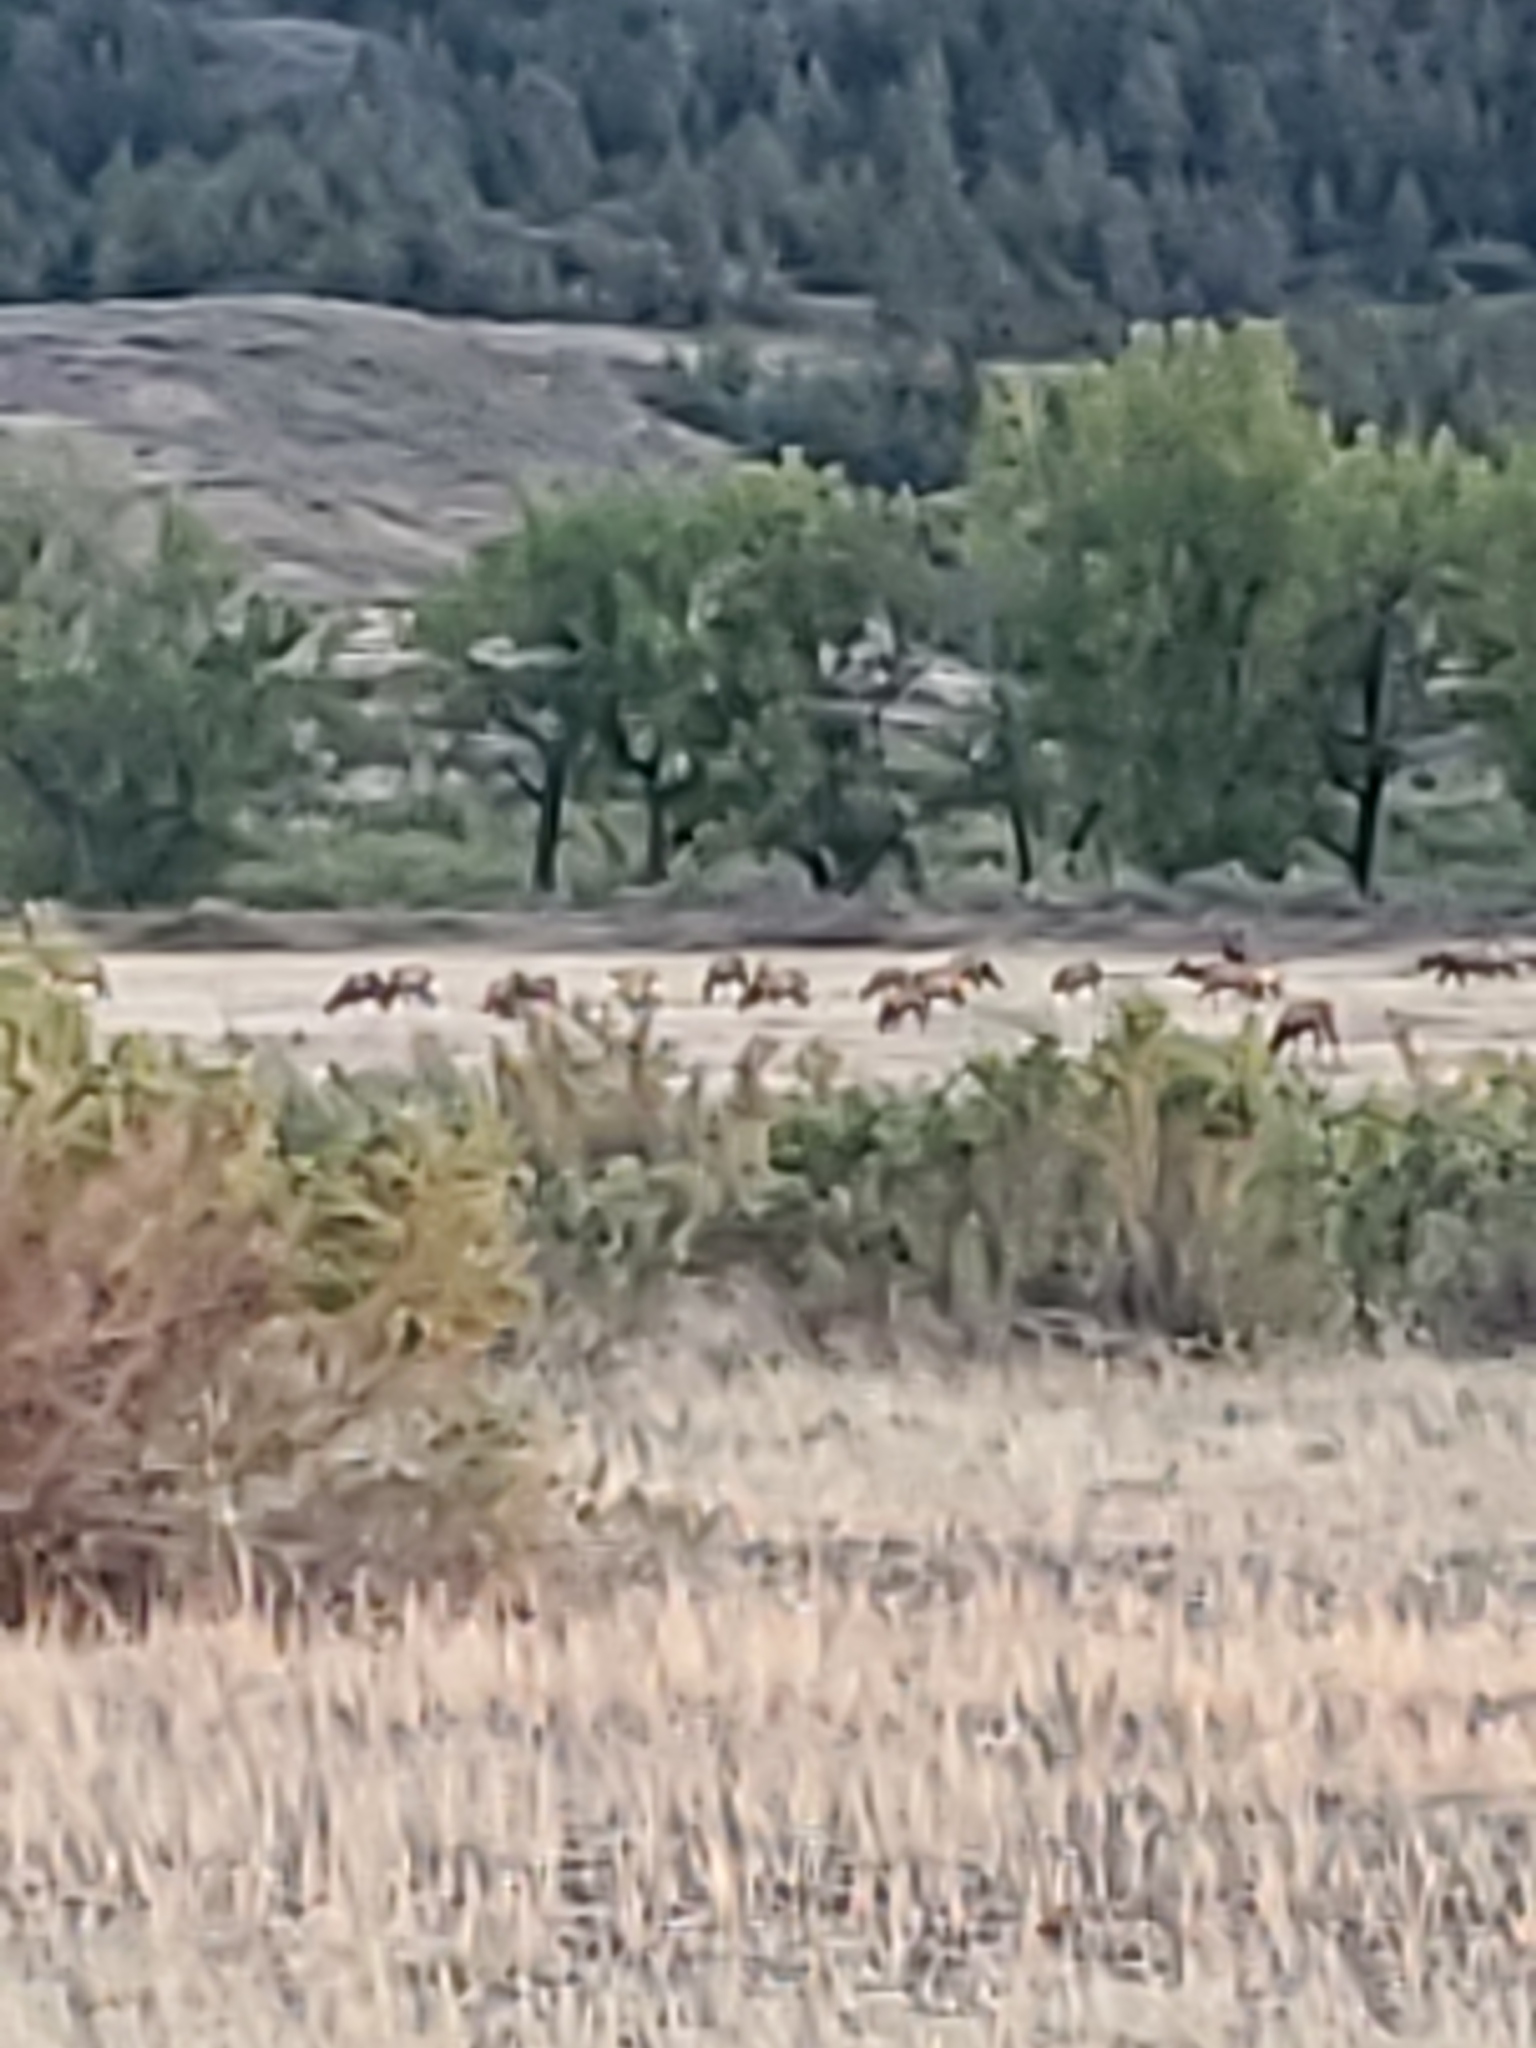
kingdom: Animalia
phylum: Chordata
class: Mammalia
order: Artiodactyla
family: Cervidae
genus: Cervus
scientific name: Cervus elaphus
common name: Red deer
